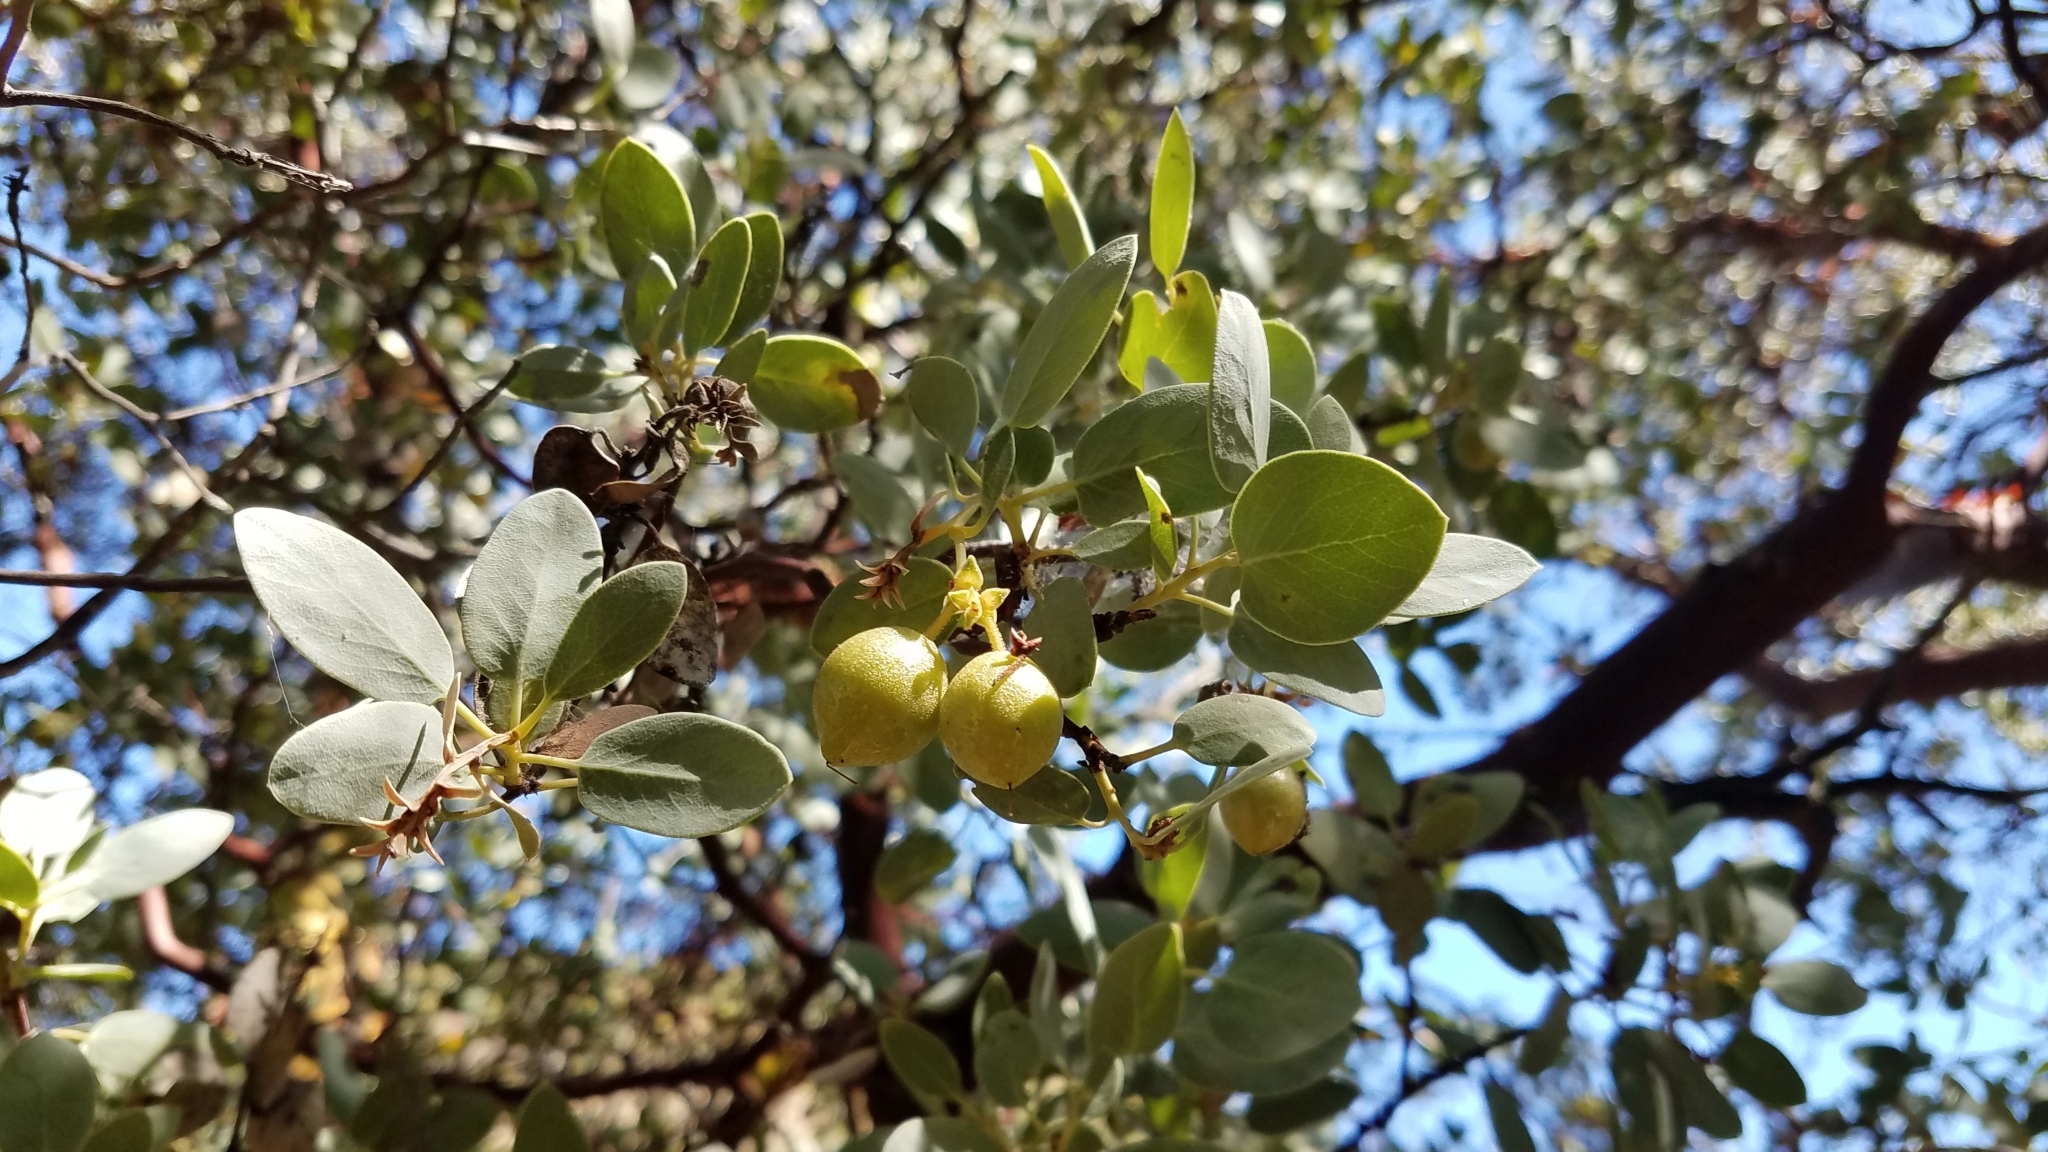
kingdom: Plantae
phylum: Tracheophyta
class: Magnoliopsida
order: Ericales
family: Ericaceae
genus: Arctostaphylos
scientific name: Arctostaphylos glauca
